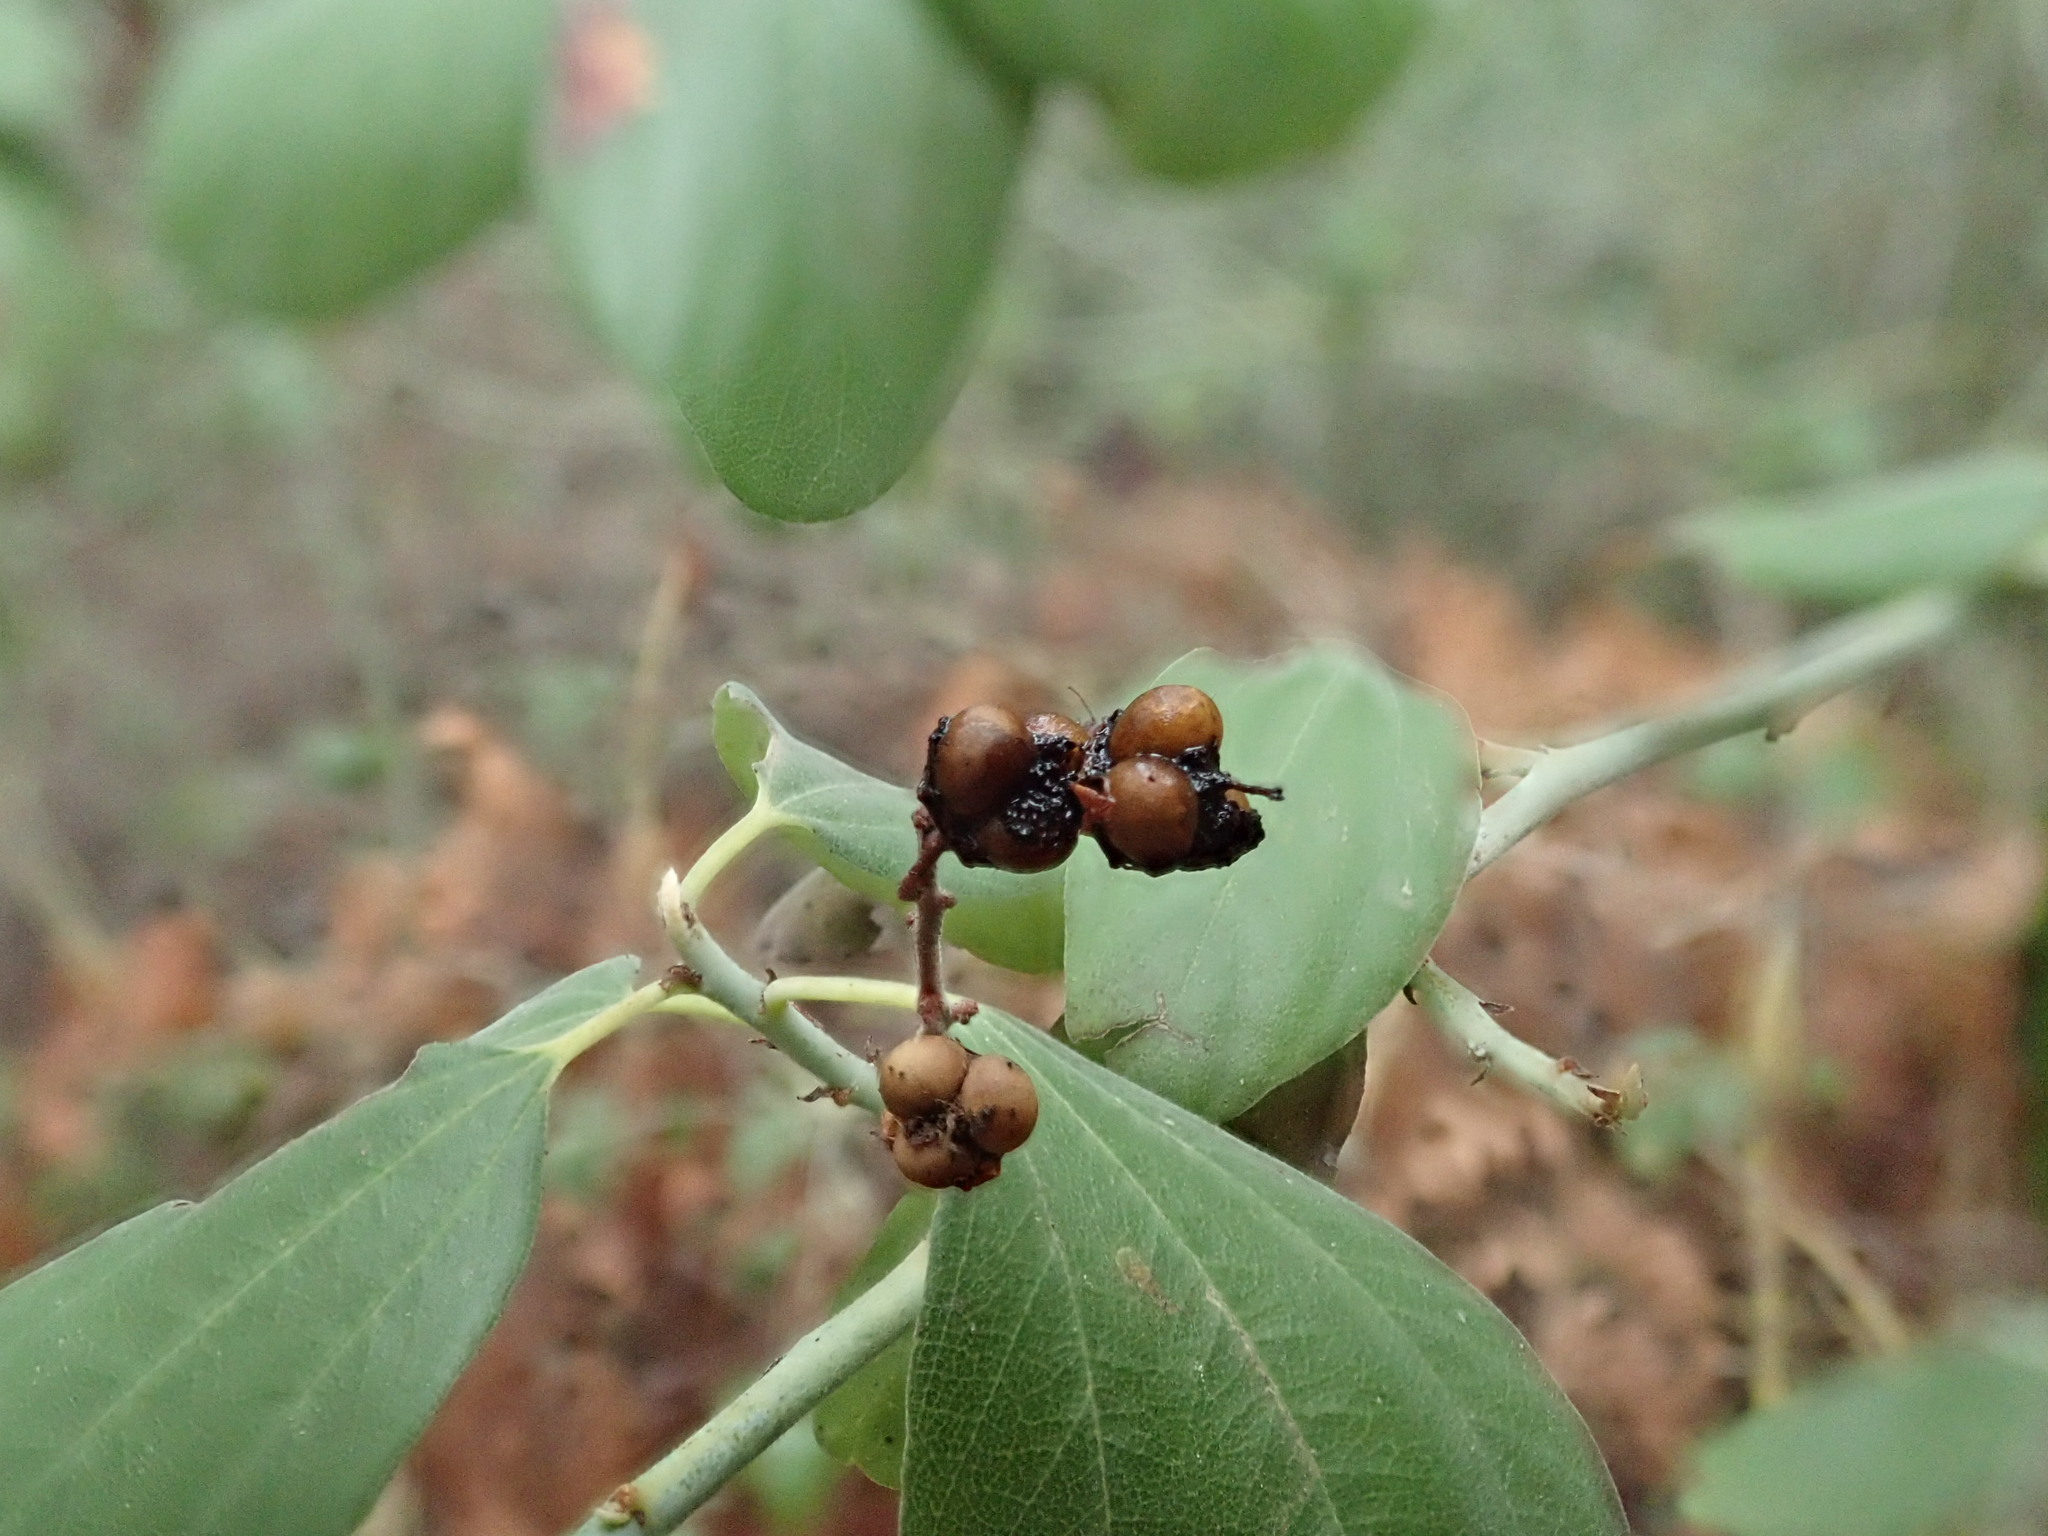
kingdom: Plantae
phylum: Tracheophyta
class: Magnoliopsida
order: Rosales
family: Rhamnaceae
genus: Ceanothus
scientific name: Ceanothus incanus
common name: Coast whitethorn
